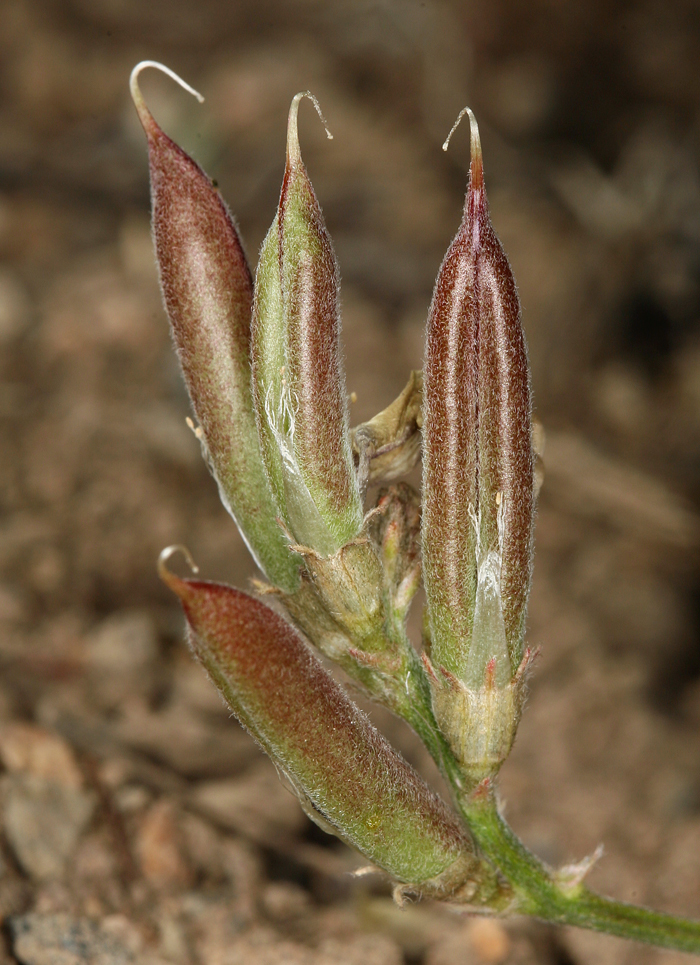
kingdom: Plantae
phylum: Tracheophyta
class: Magnoliopsida
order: Fabales
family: Fabaceae
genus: Astragalus
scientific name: Astragalus obscurus
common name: Arcane milk-vetch
